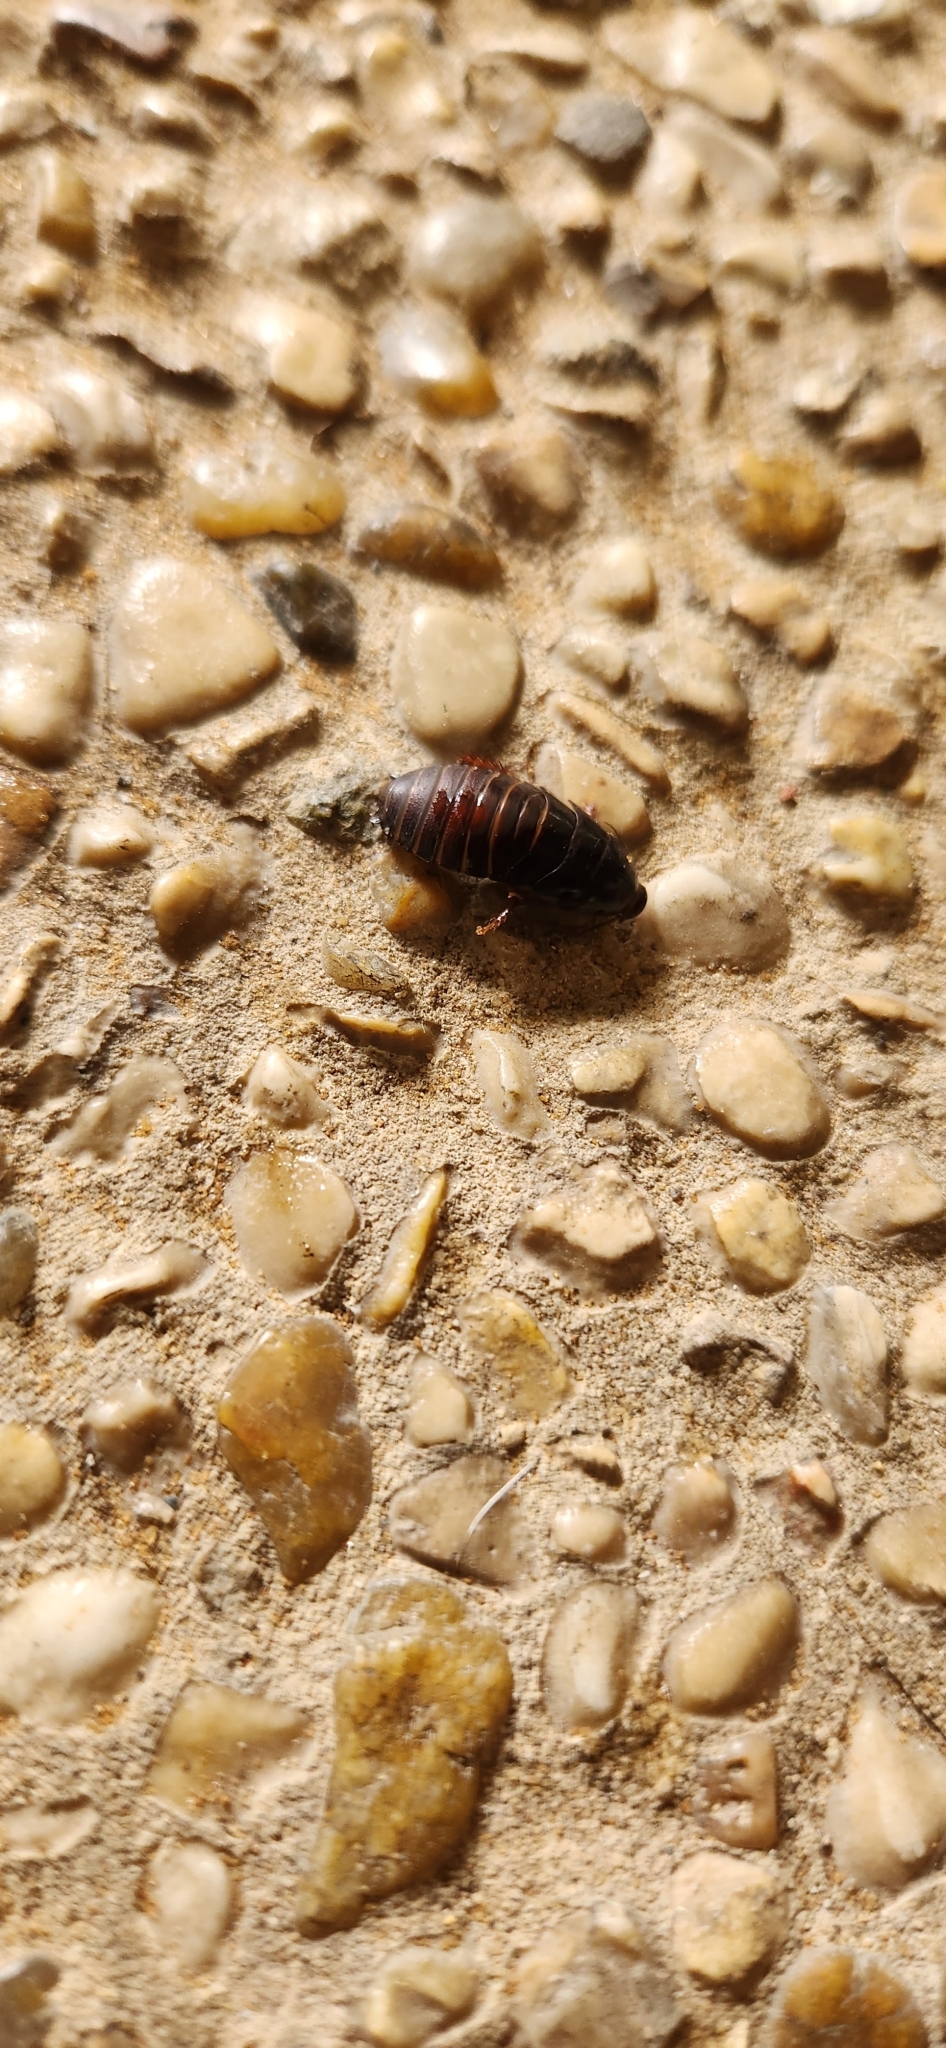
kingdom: Animalia
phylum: Arthropoda
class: Insecta
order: Blattodea
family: Blaberidae
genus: Pycnoscelus
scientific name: Pycnoscelus surinamensis
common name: Surinam cockroach
